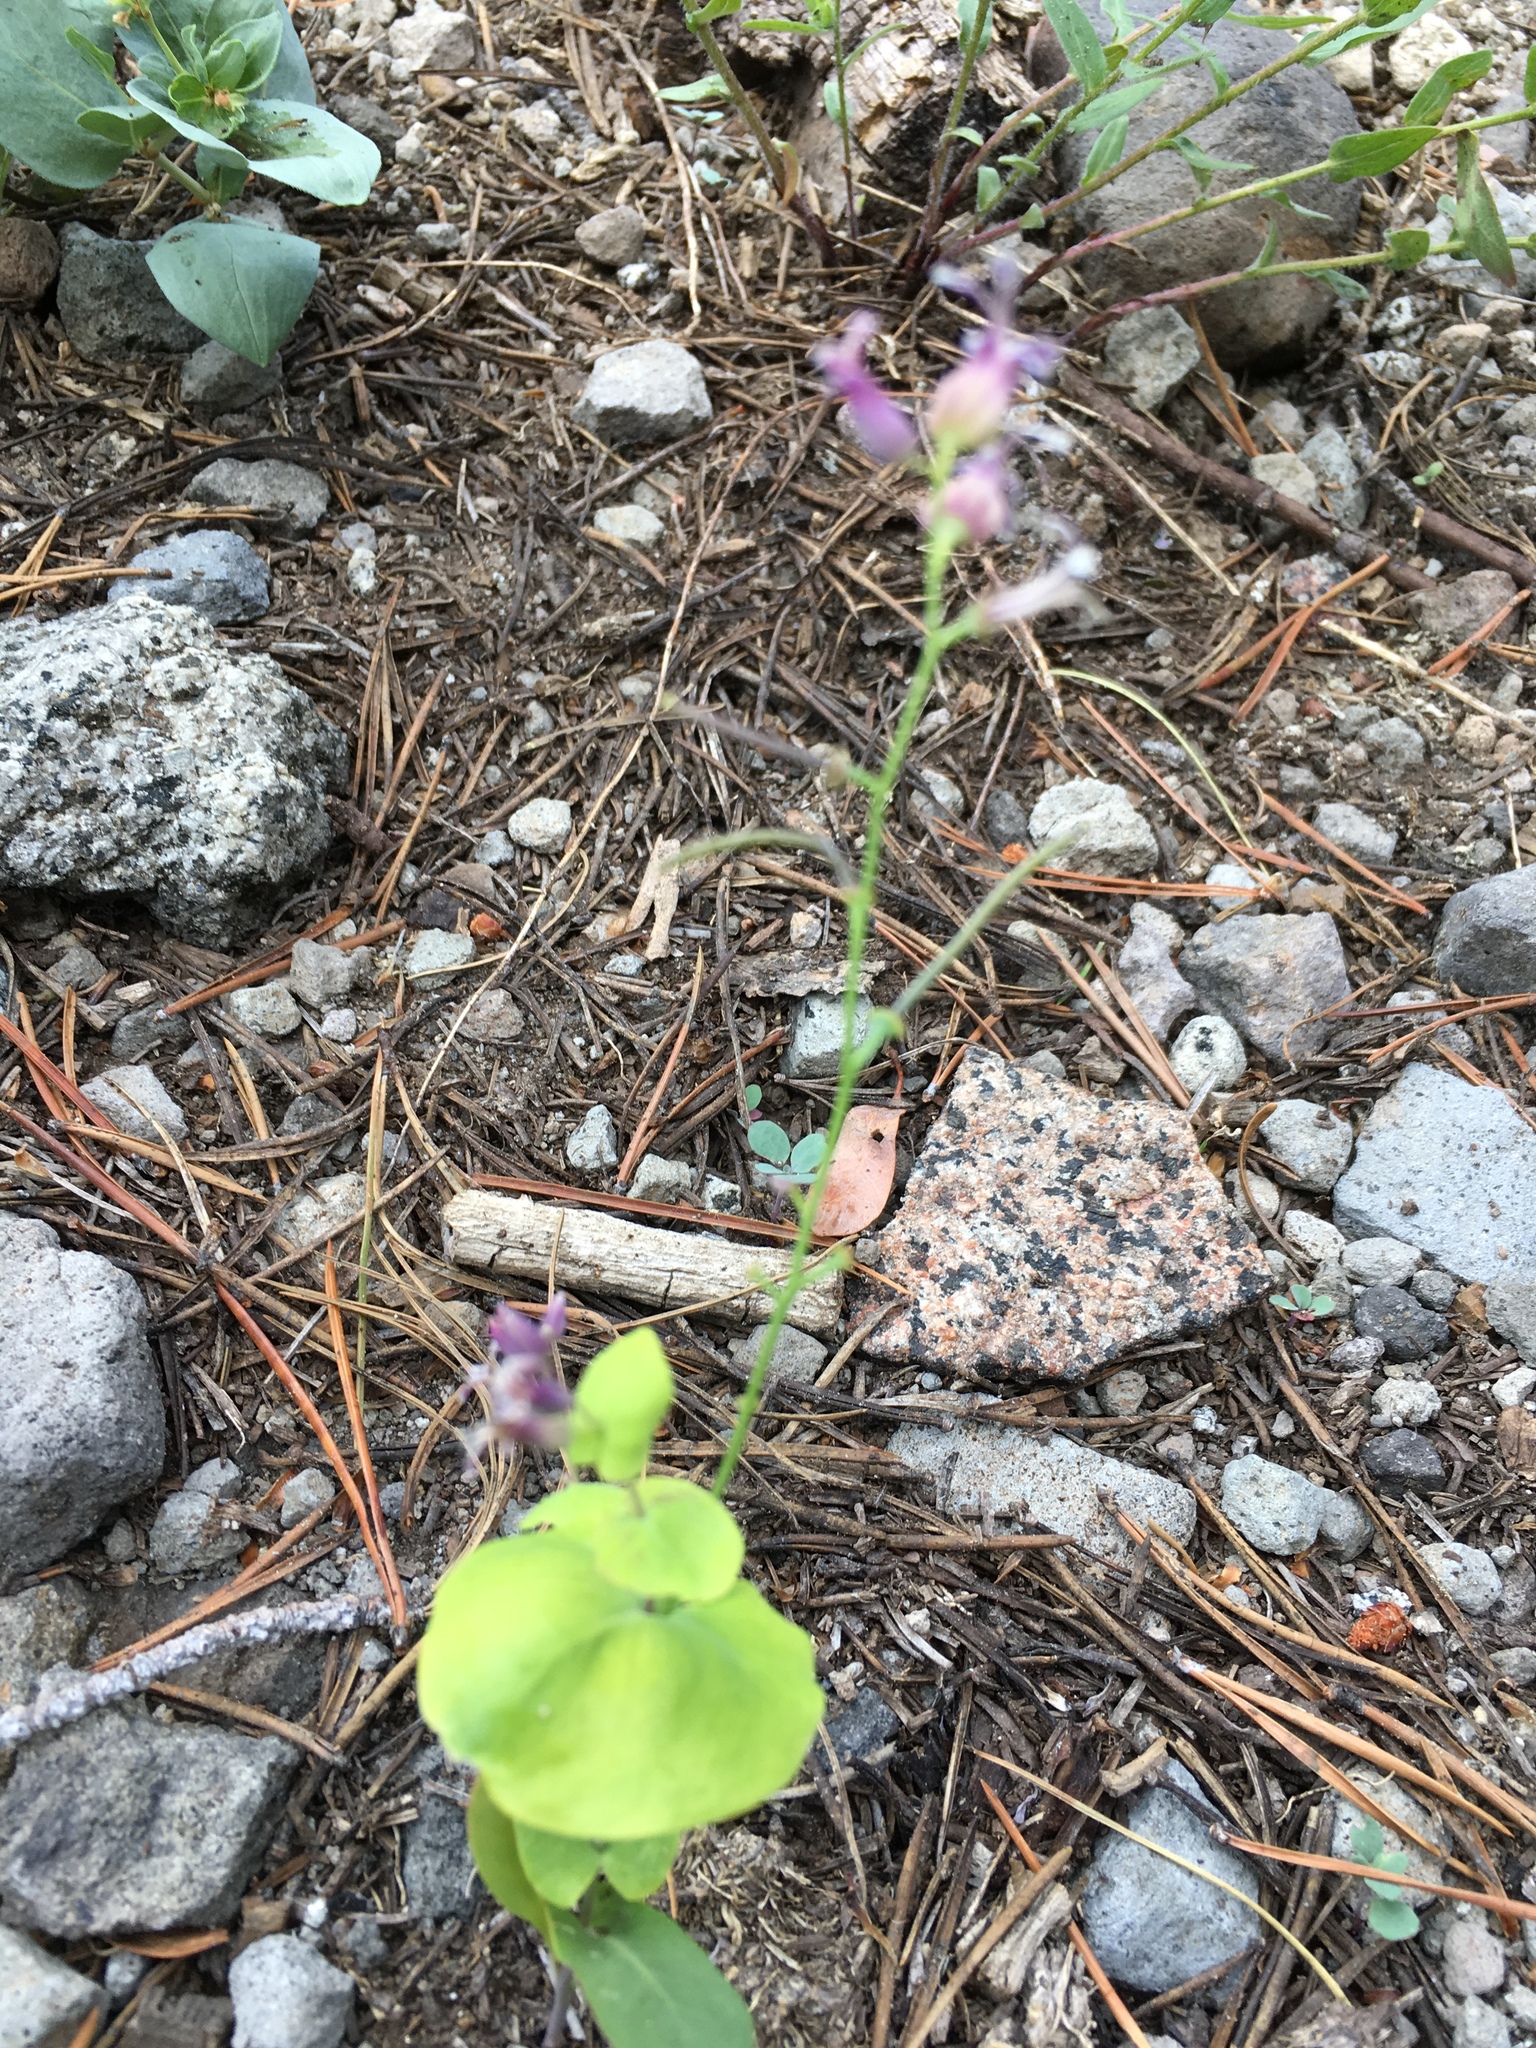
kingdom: Plantae
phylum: Tracheophyta
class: Magnoliopsida
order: Brassicales
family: Brassicaceae
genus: Streptanthus
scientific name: Streptanthus tortuosus
